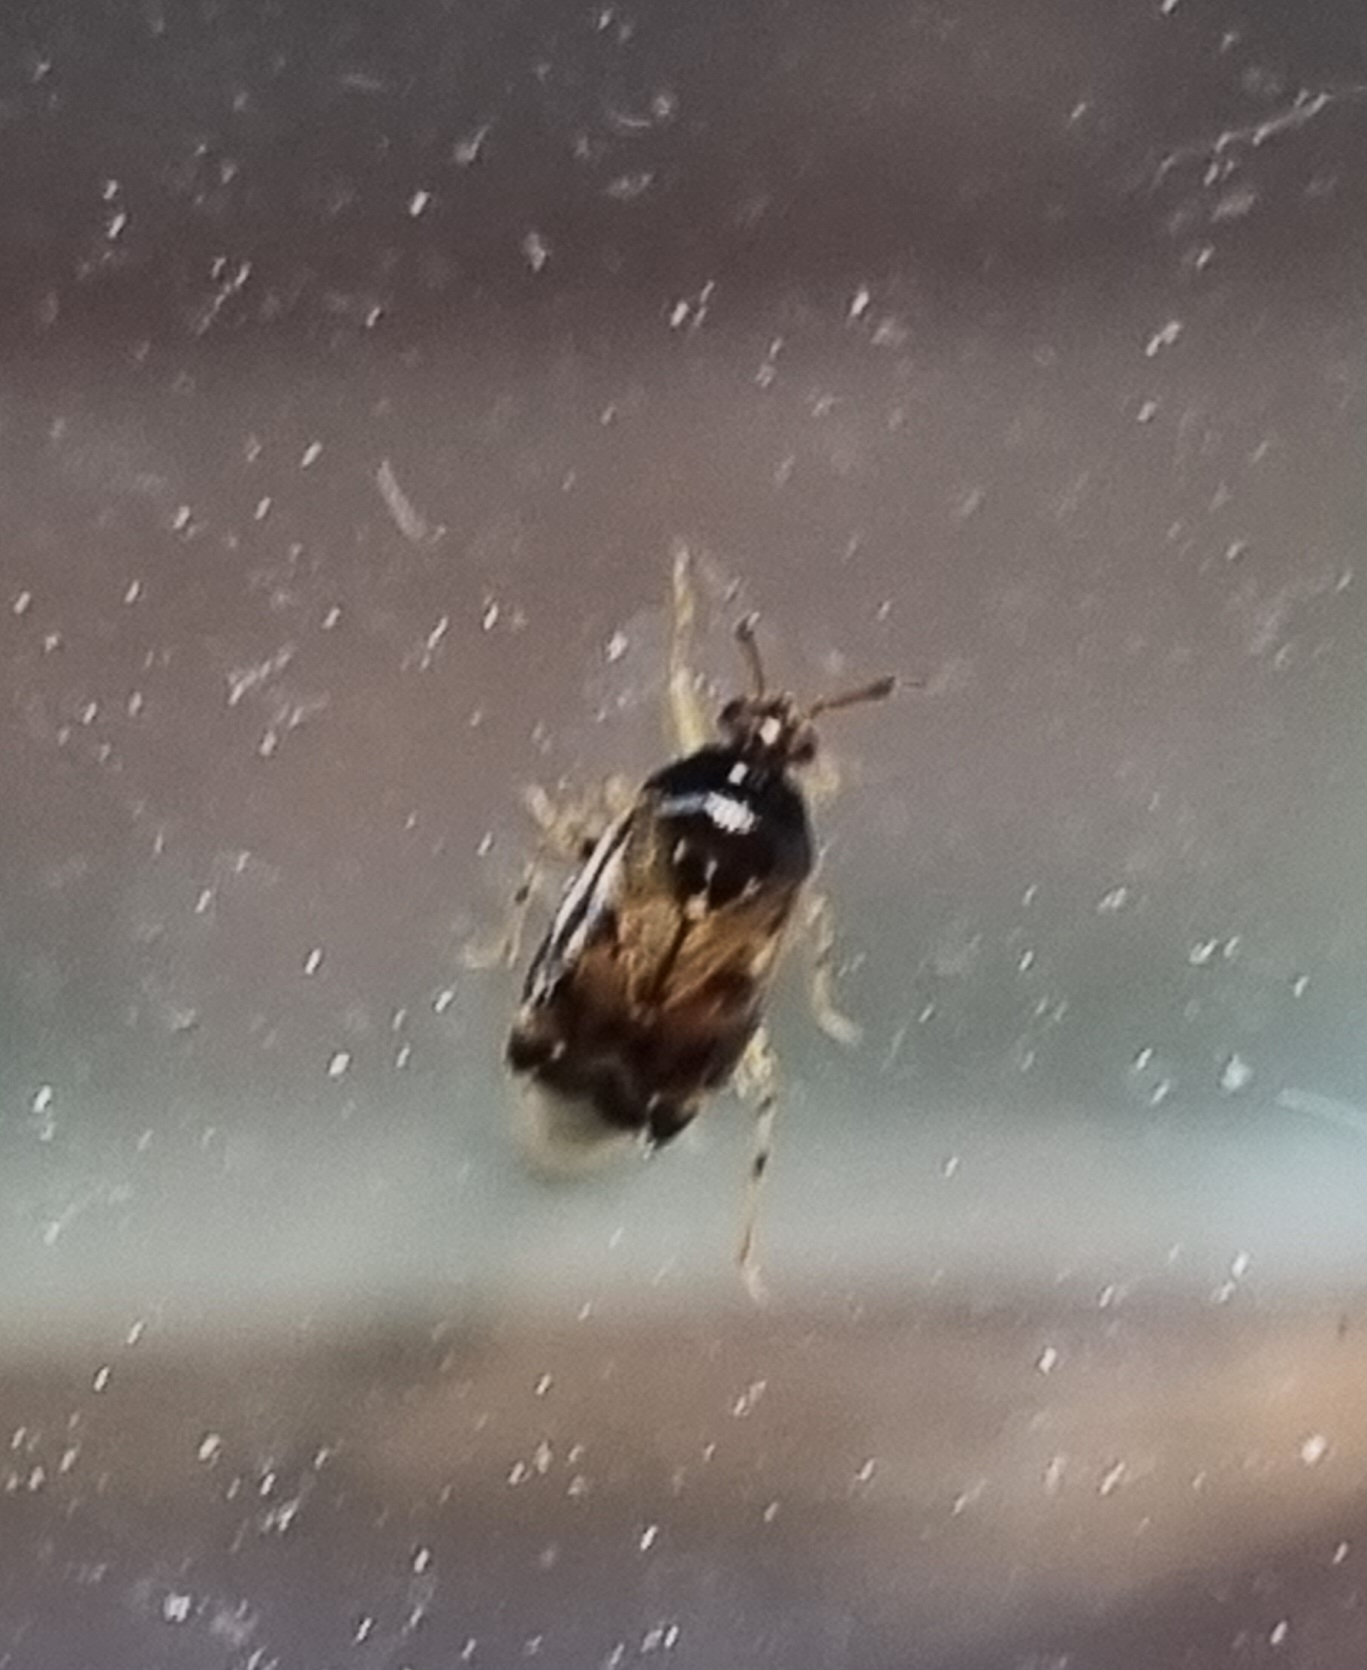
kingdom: Animalia
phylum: Arthropoda
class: Insecta
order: Hemiptera
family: Miridae
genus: Deraeocoris
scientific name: Deraeocoris lutescens
